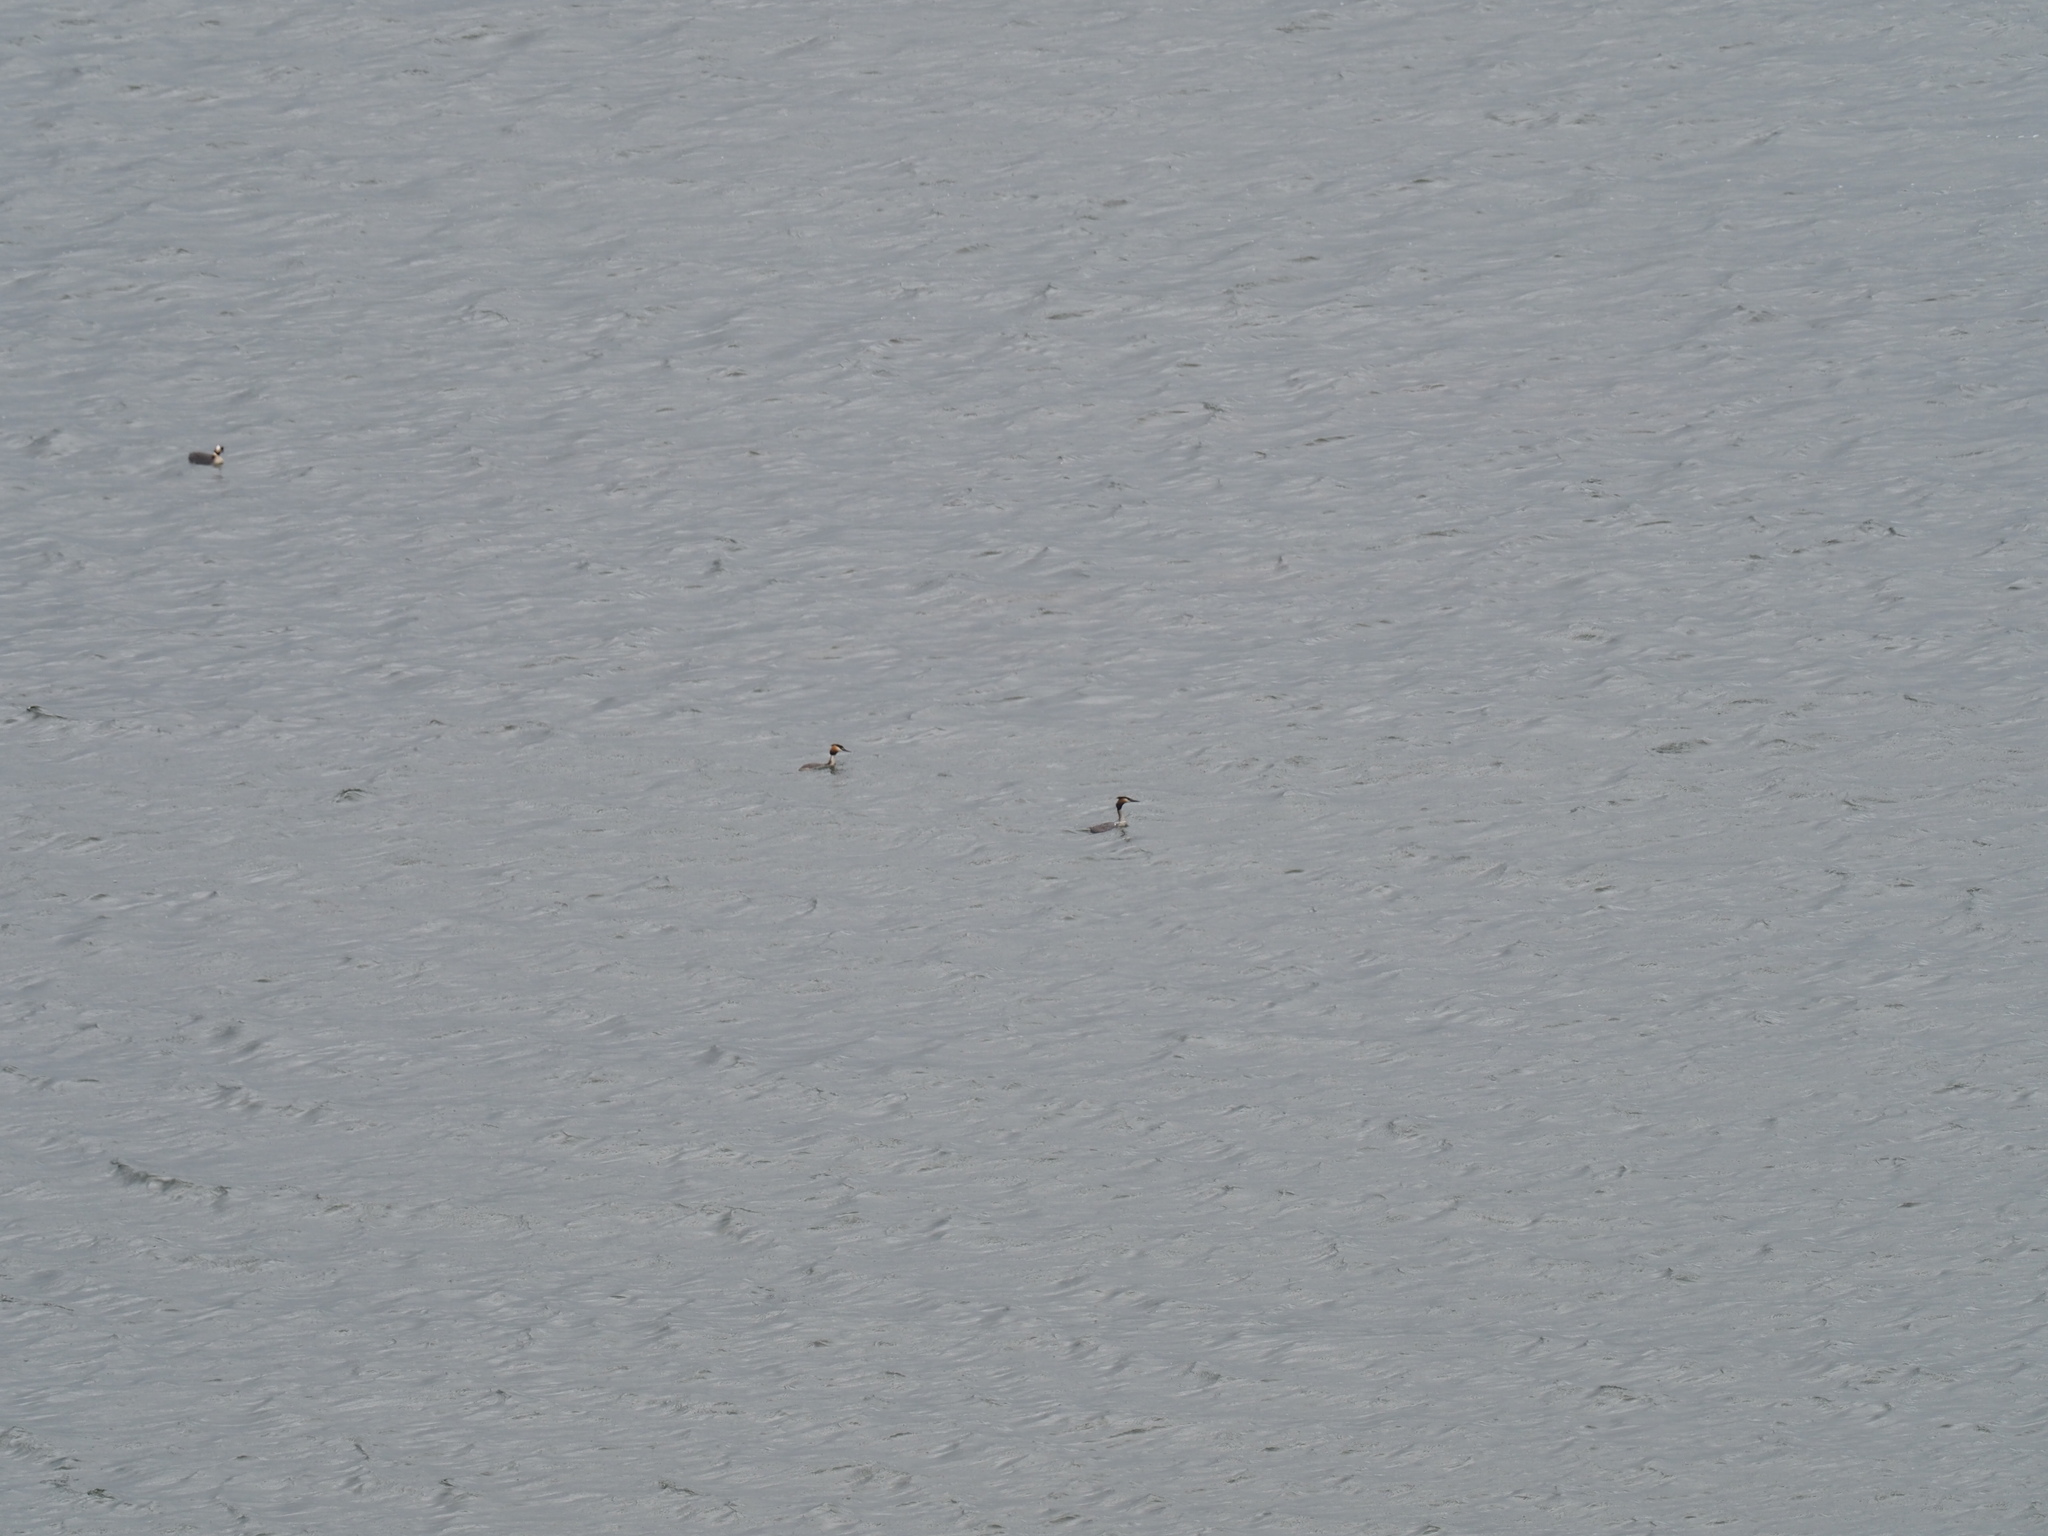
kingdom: Animalia
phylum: Chordata
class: Aves
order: Podicipediformes
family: Podicipedidae
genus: Podiceps
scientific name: Podiceps cristatus
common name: Great crested grebe
